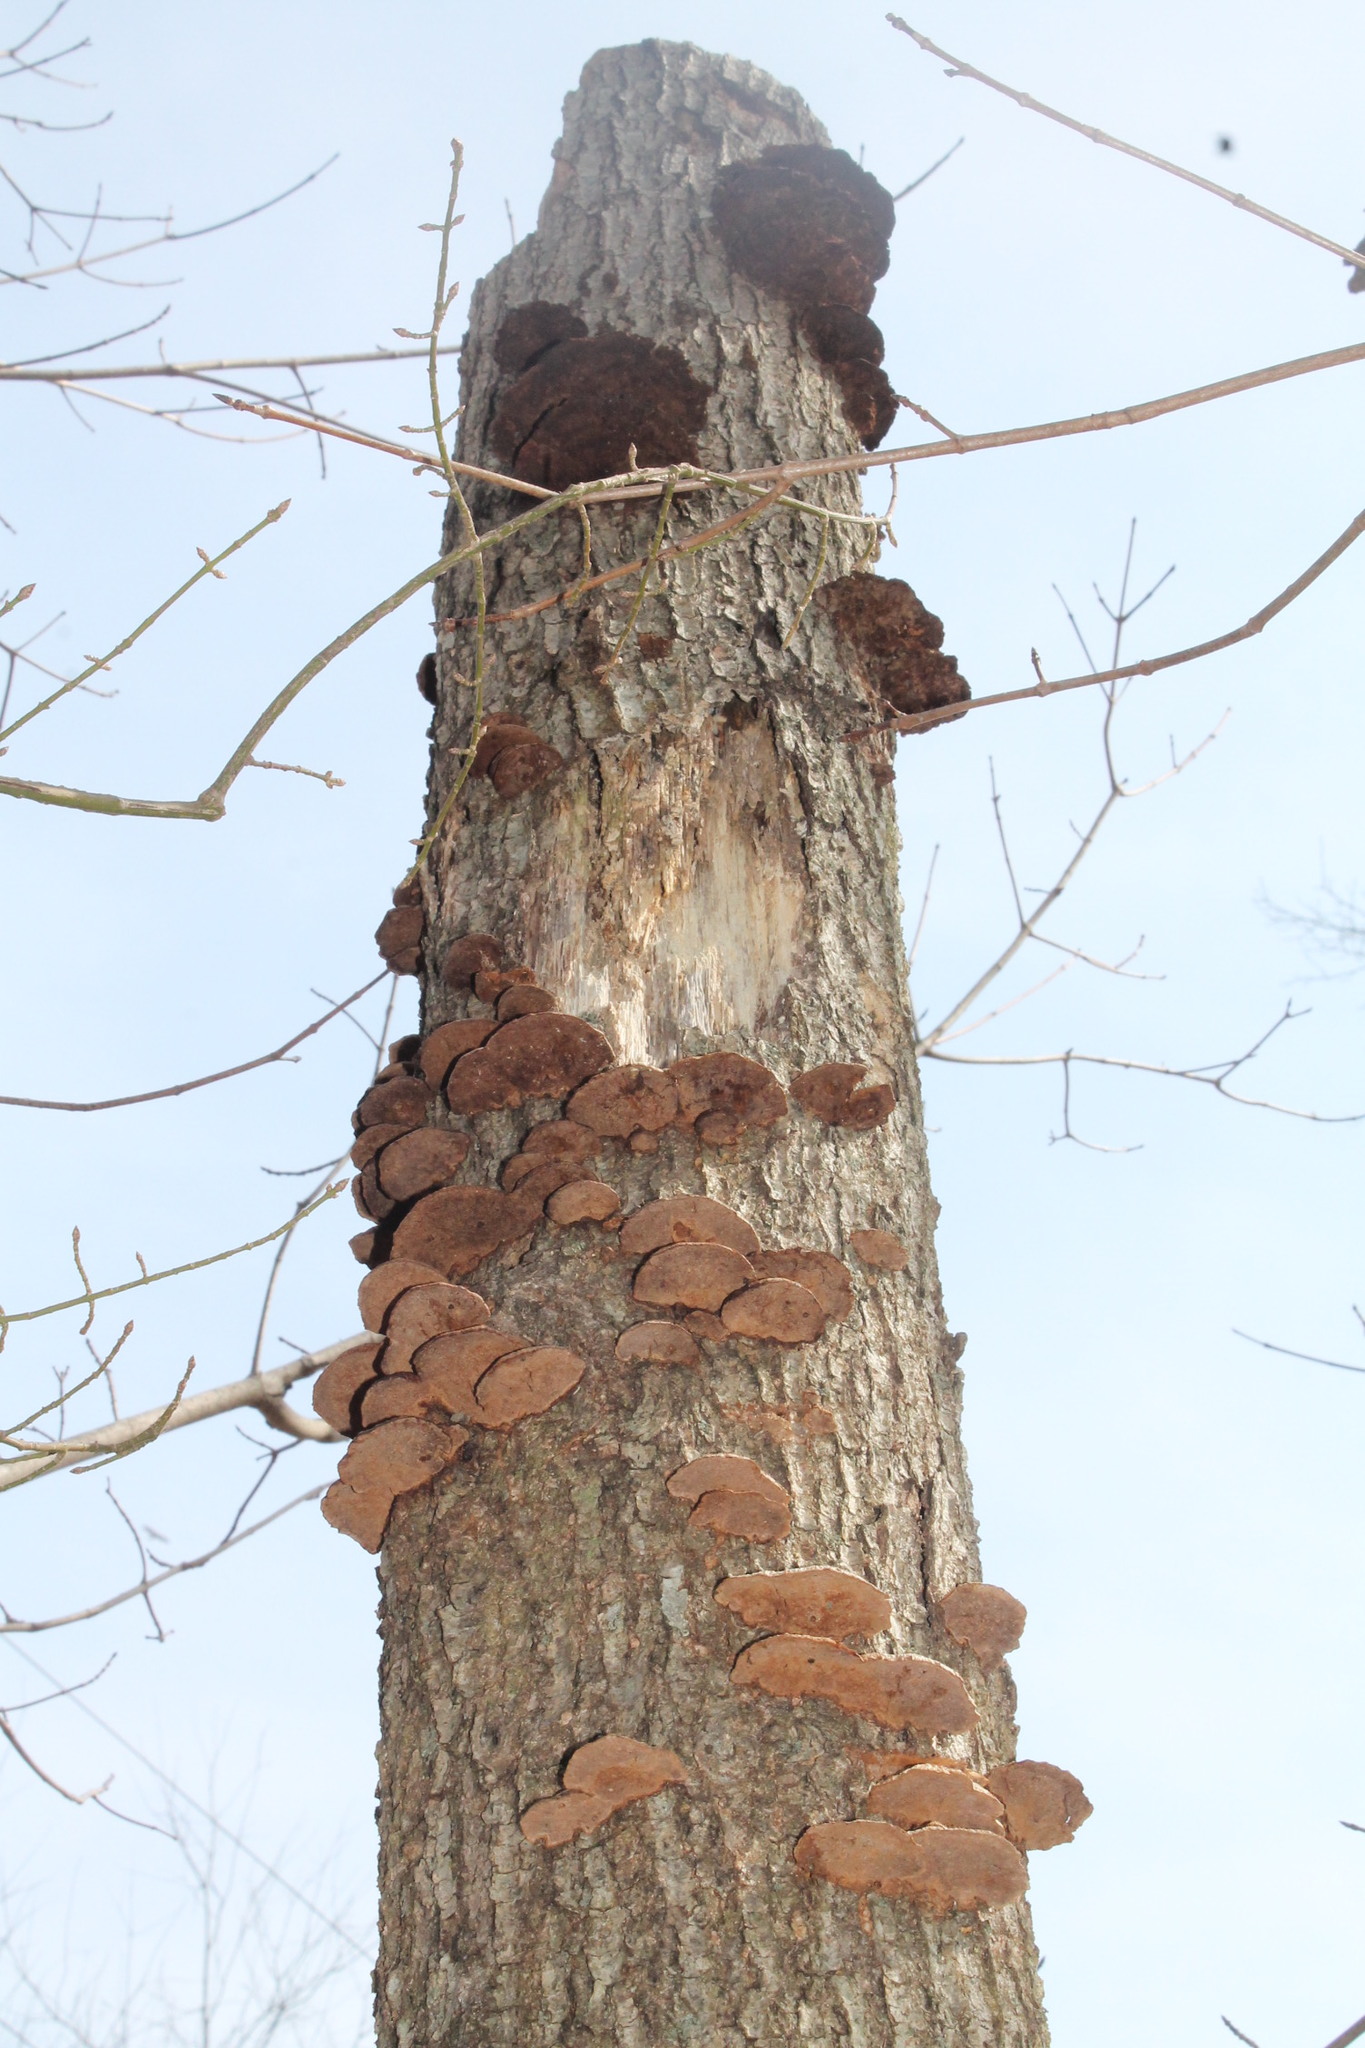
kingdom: Fungi
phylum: Basidiomycota
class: Agaricomycetes
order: Hymenochaetales
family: Hymenochaetaceae
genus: Phellinus
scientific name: Phellinus gilvus
